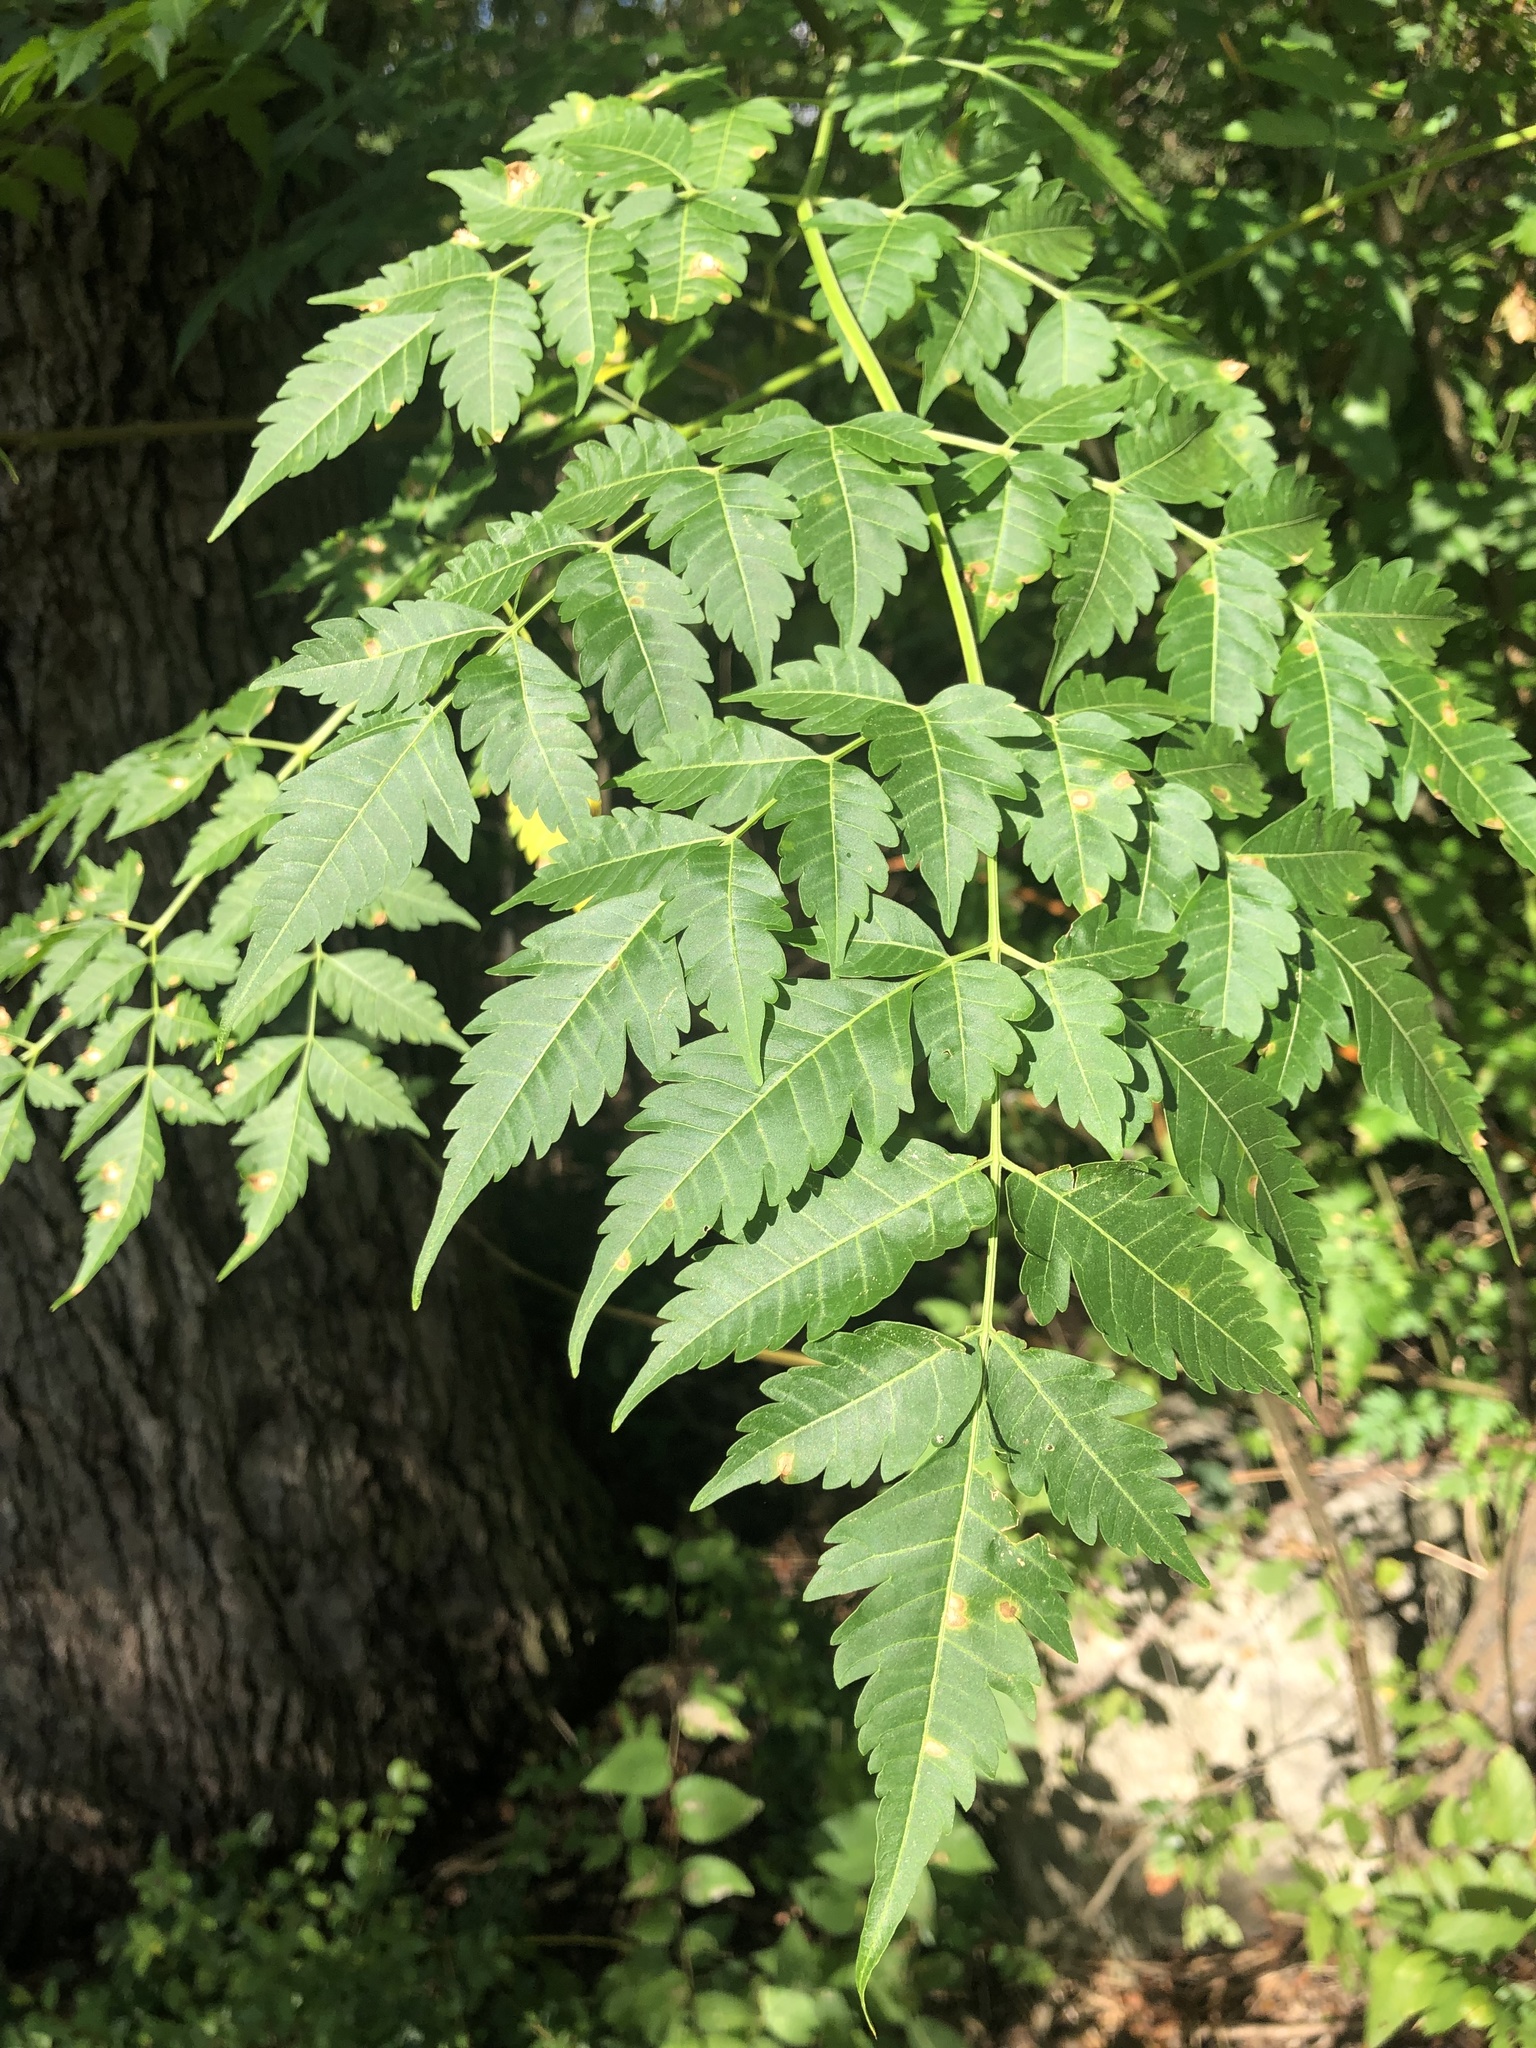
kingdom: Plantae
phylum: Tracheophyta
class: Magnoliopsida
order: Sapindales
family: Meliaceae
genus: Melia
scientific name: Melia azedarach
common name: Chinaberrytree
